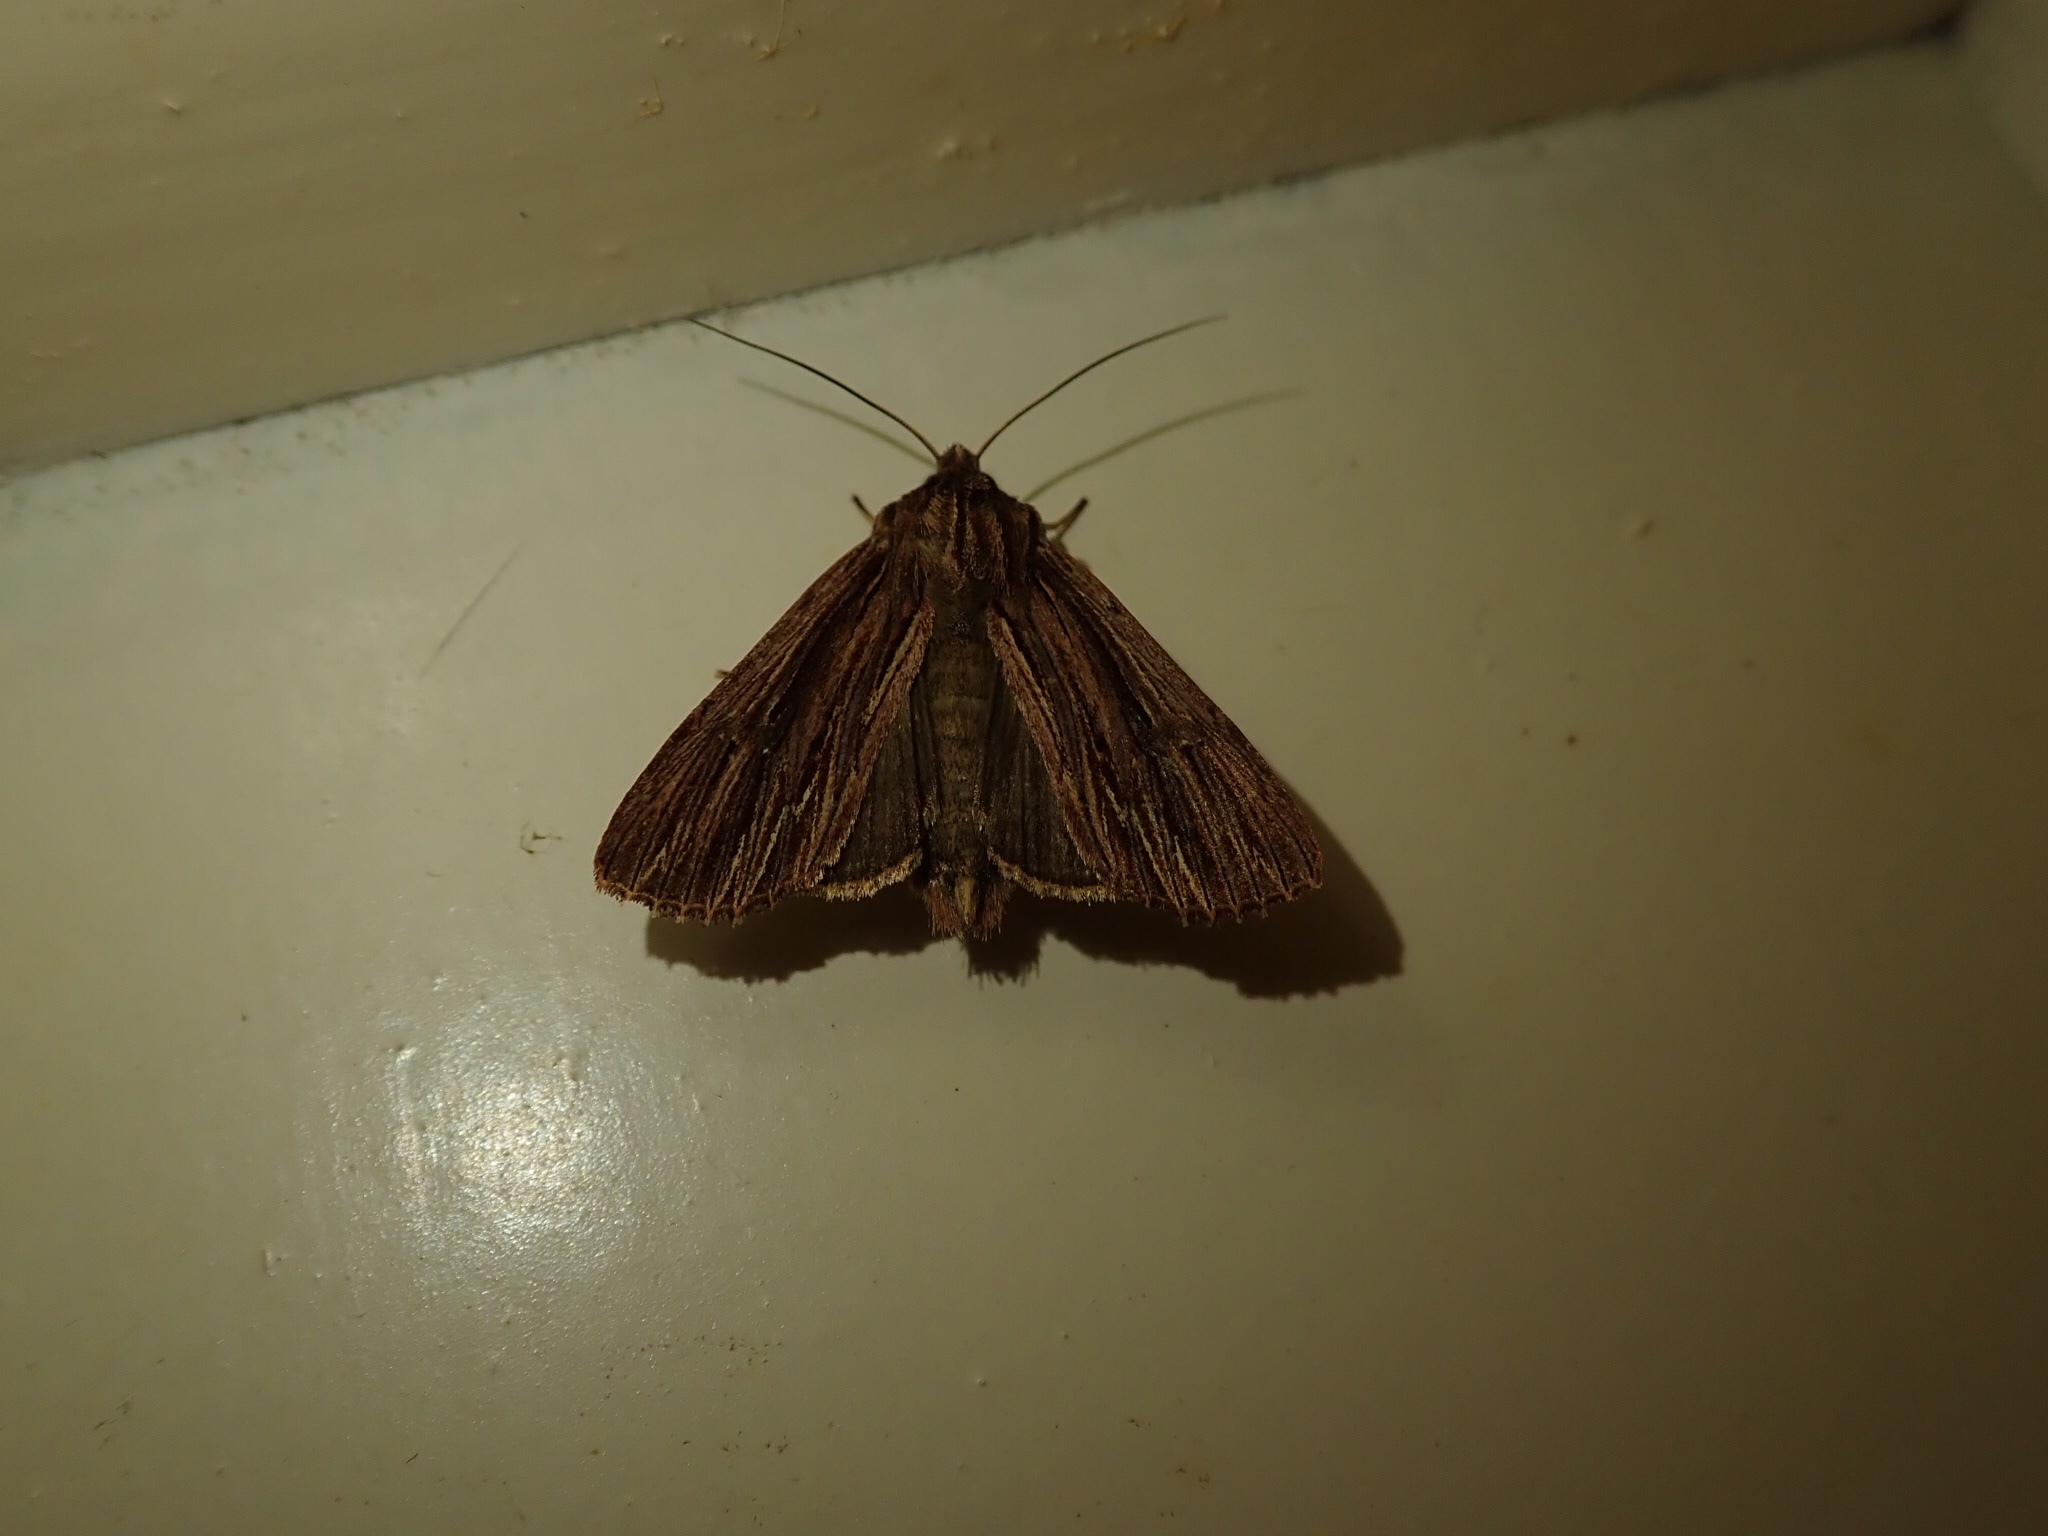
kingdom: Animalia
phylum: Arthropoda
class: Insecta
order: Lepidoptera
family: Noctuidae
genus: Ichneutica
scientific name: Ichneutica
